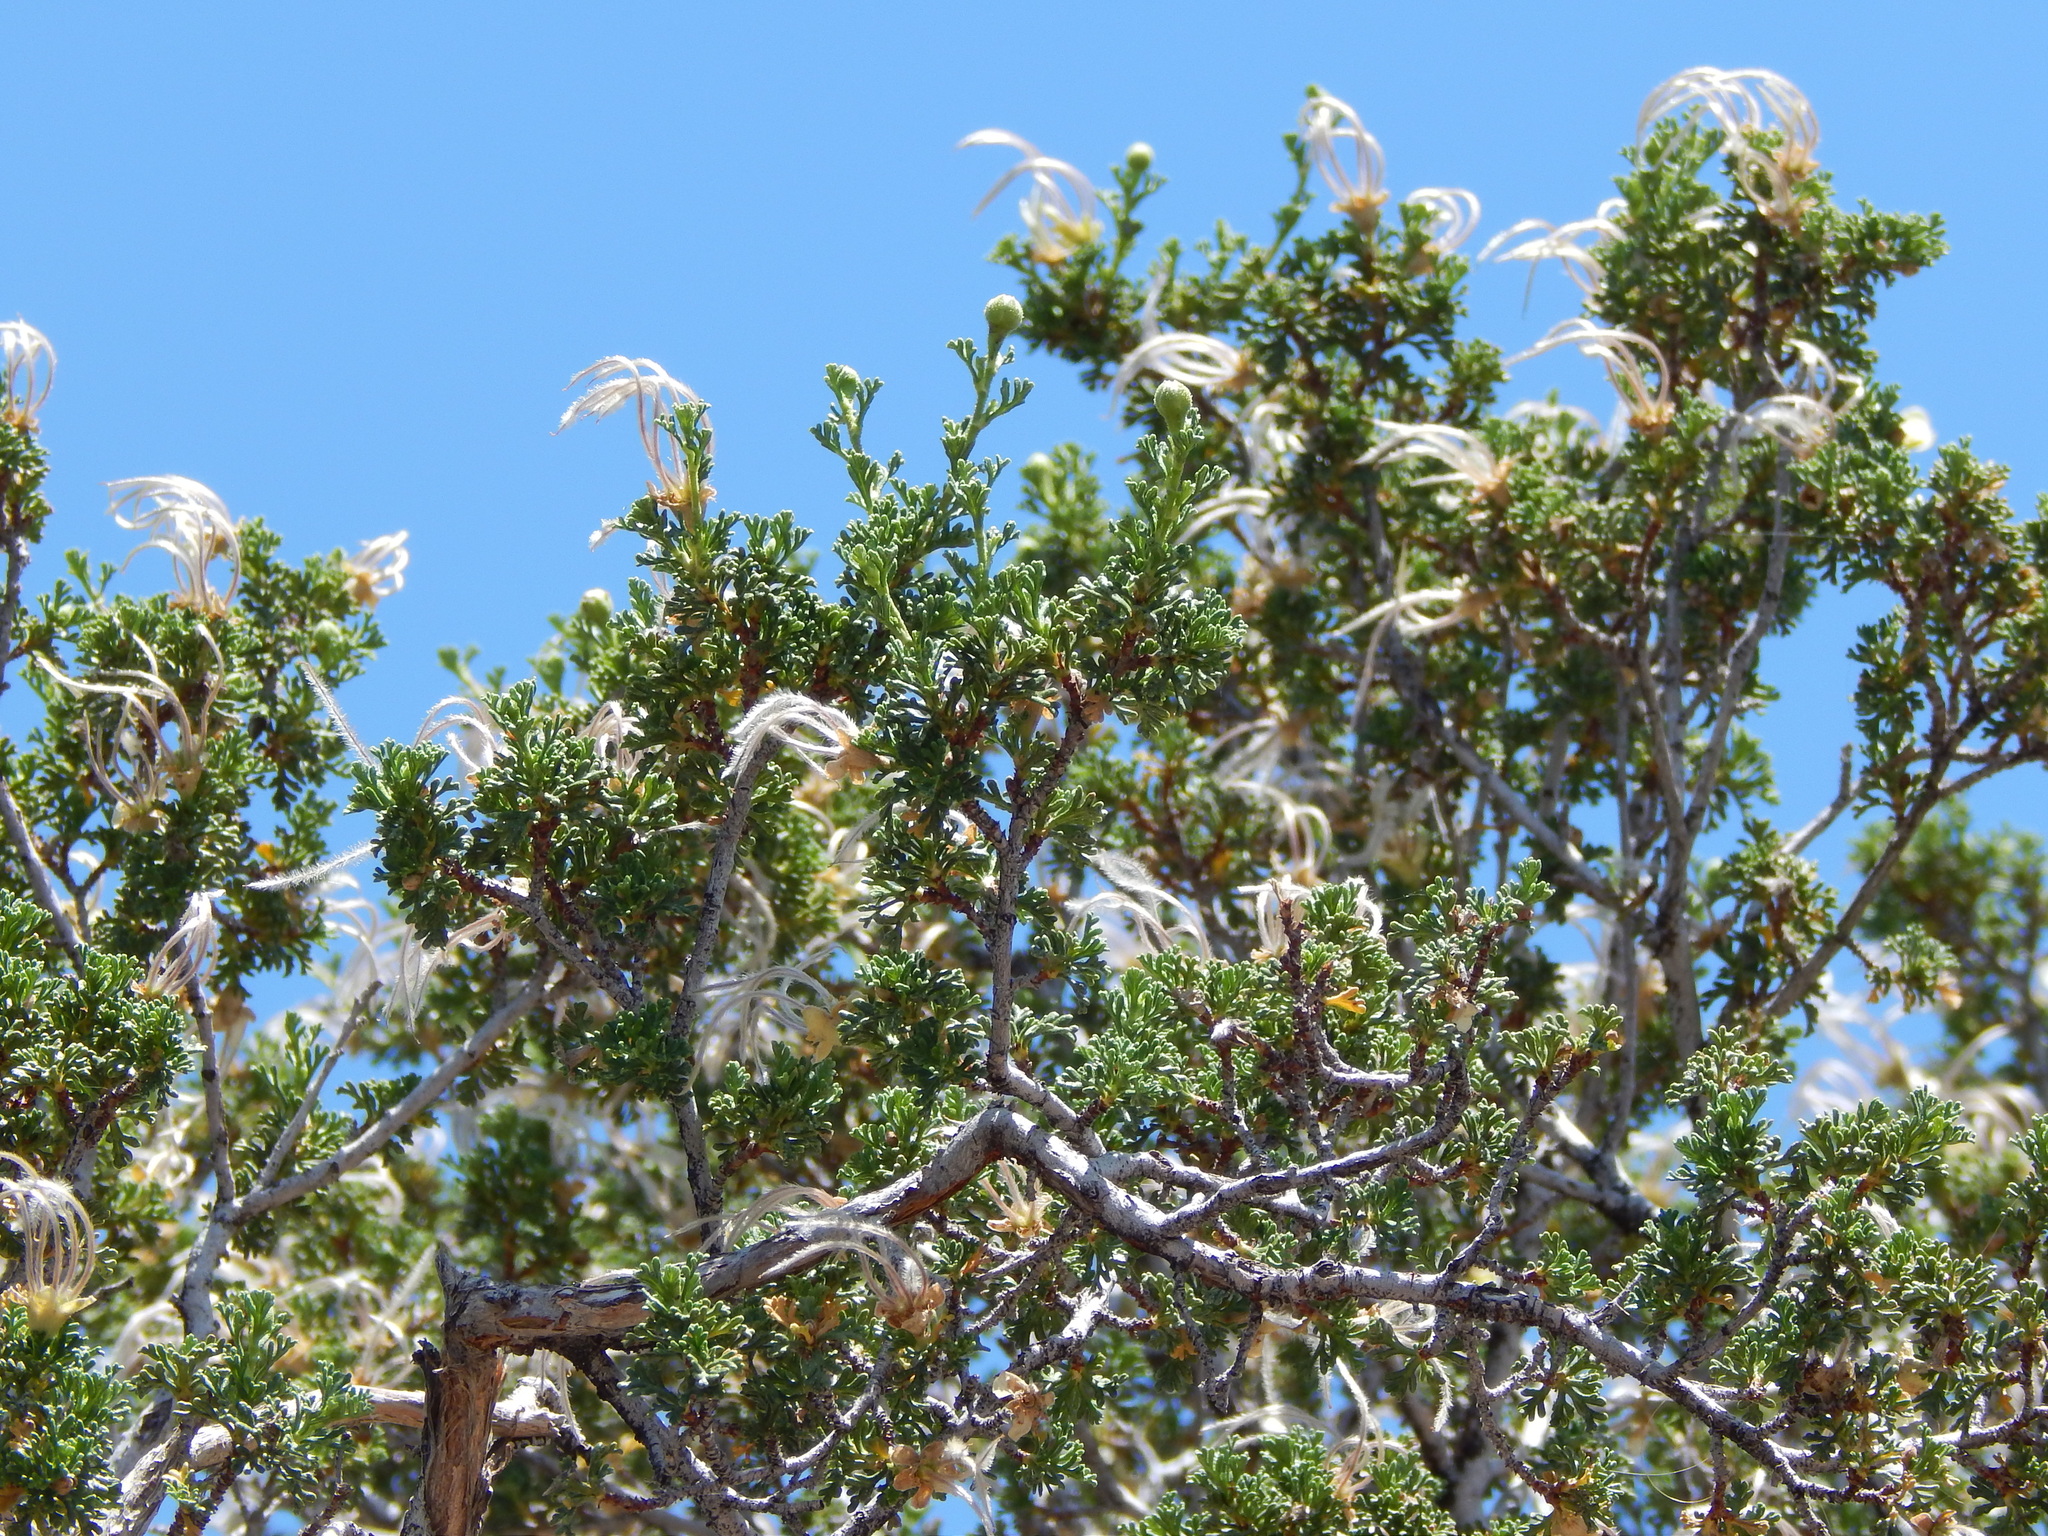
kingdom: Plantae
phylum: Tracheophyta
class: Magnoliopsida
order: Rosales
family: Rosaceae
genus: Purshia
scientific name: Purshia stansburiana
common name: Stansbury's cliffrose
